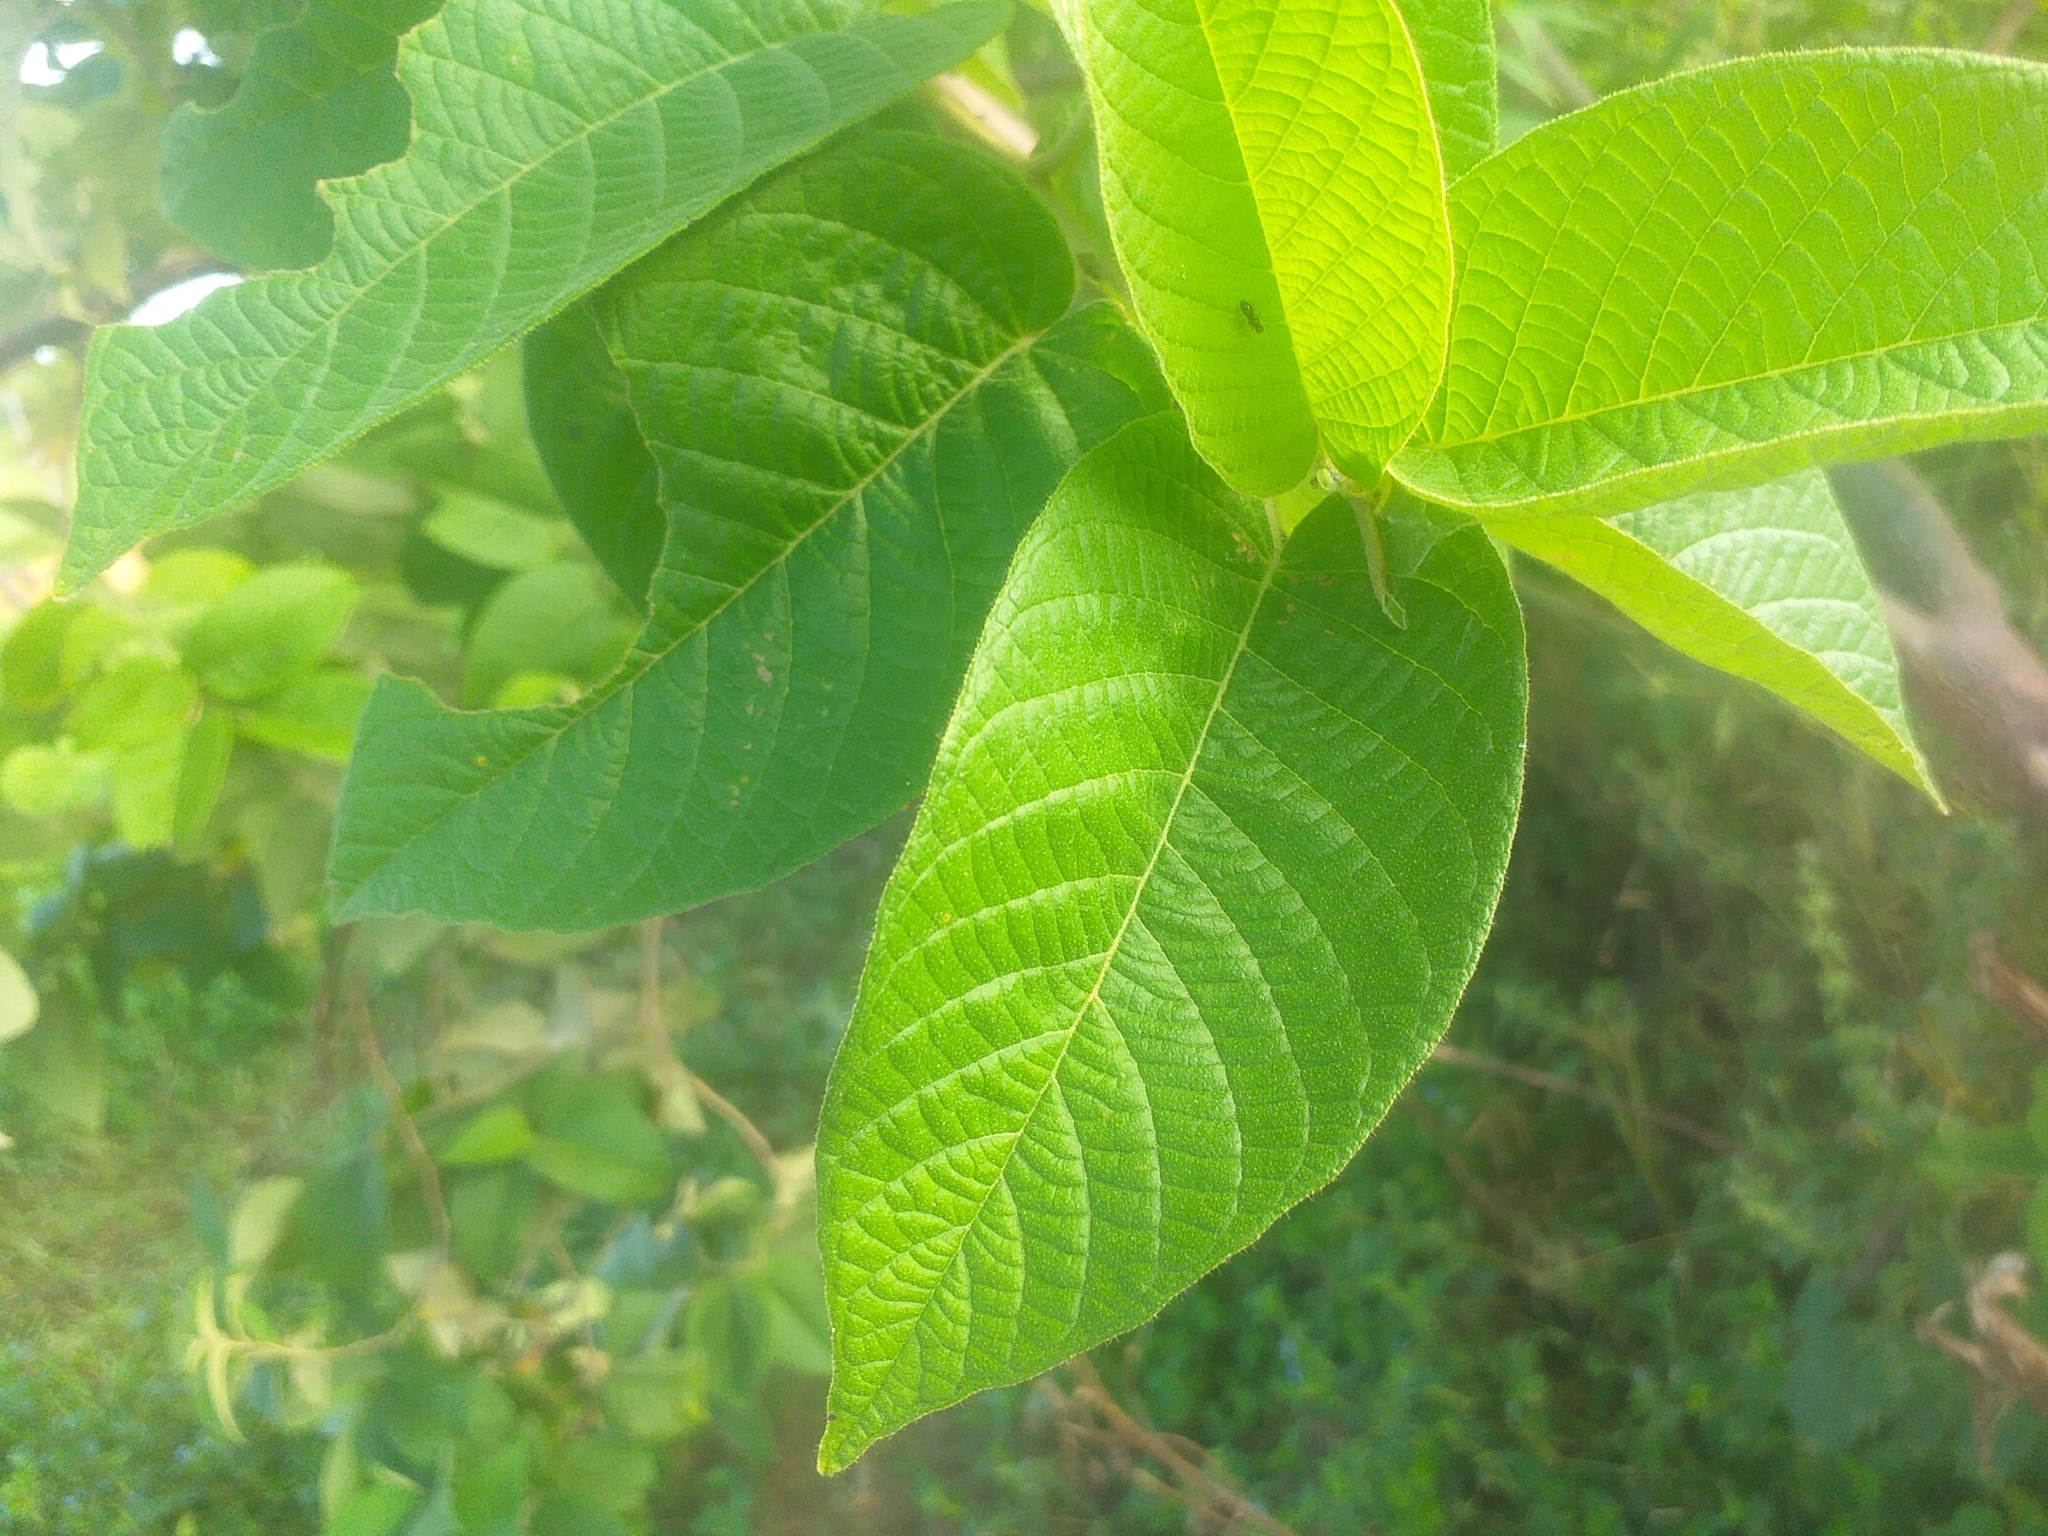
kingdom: Plantae
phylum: Tracheophyta
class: Magnoliopsida
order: Malpighiales
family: Euphorbiaceae
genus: Croton
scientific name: Croton blanchetianus
